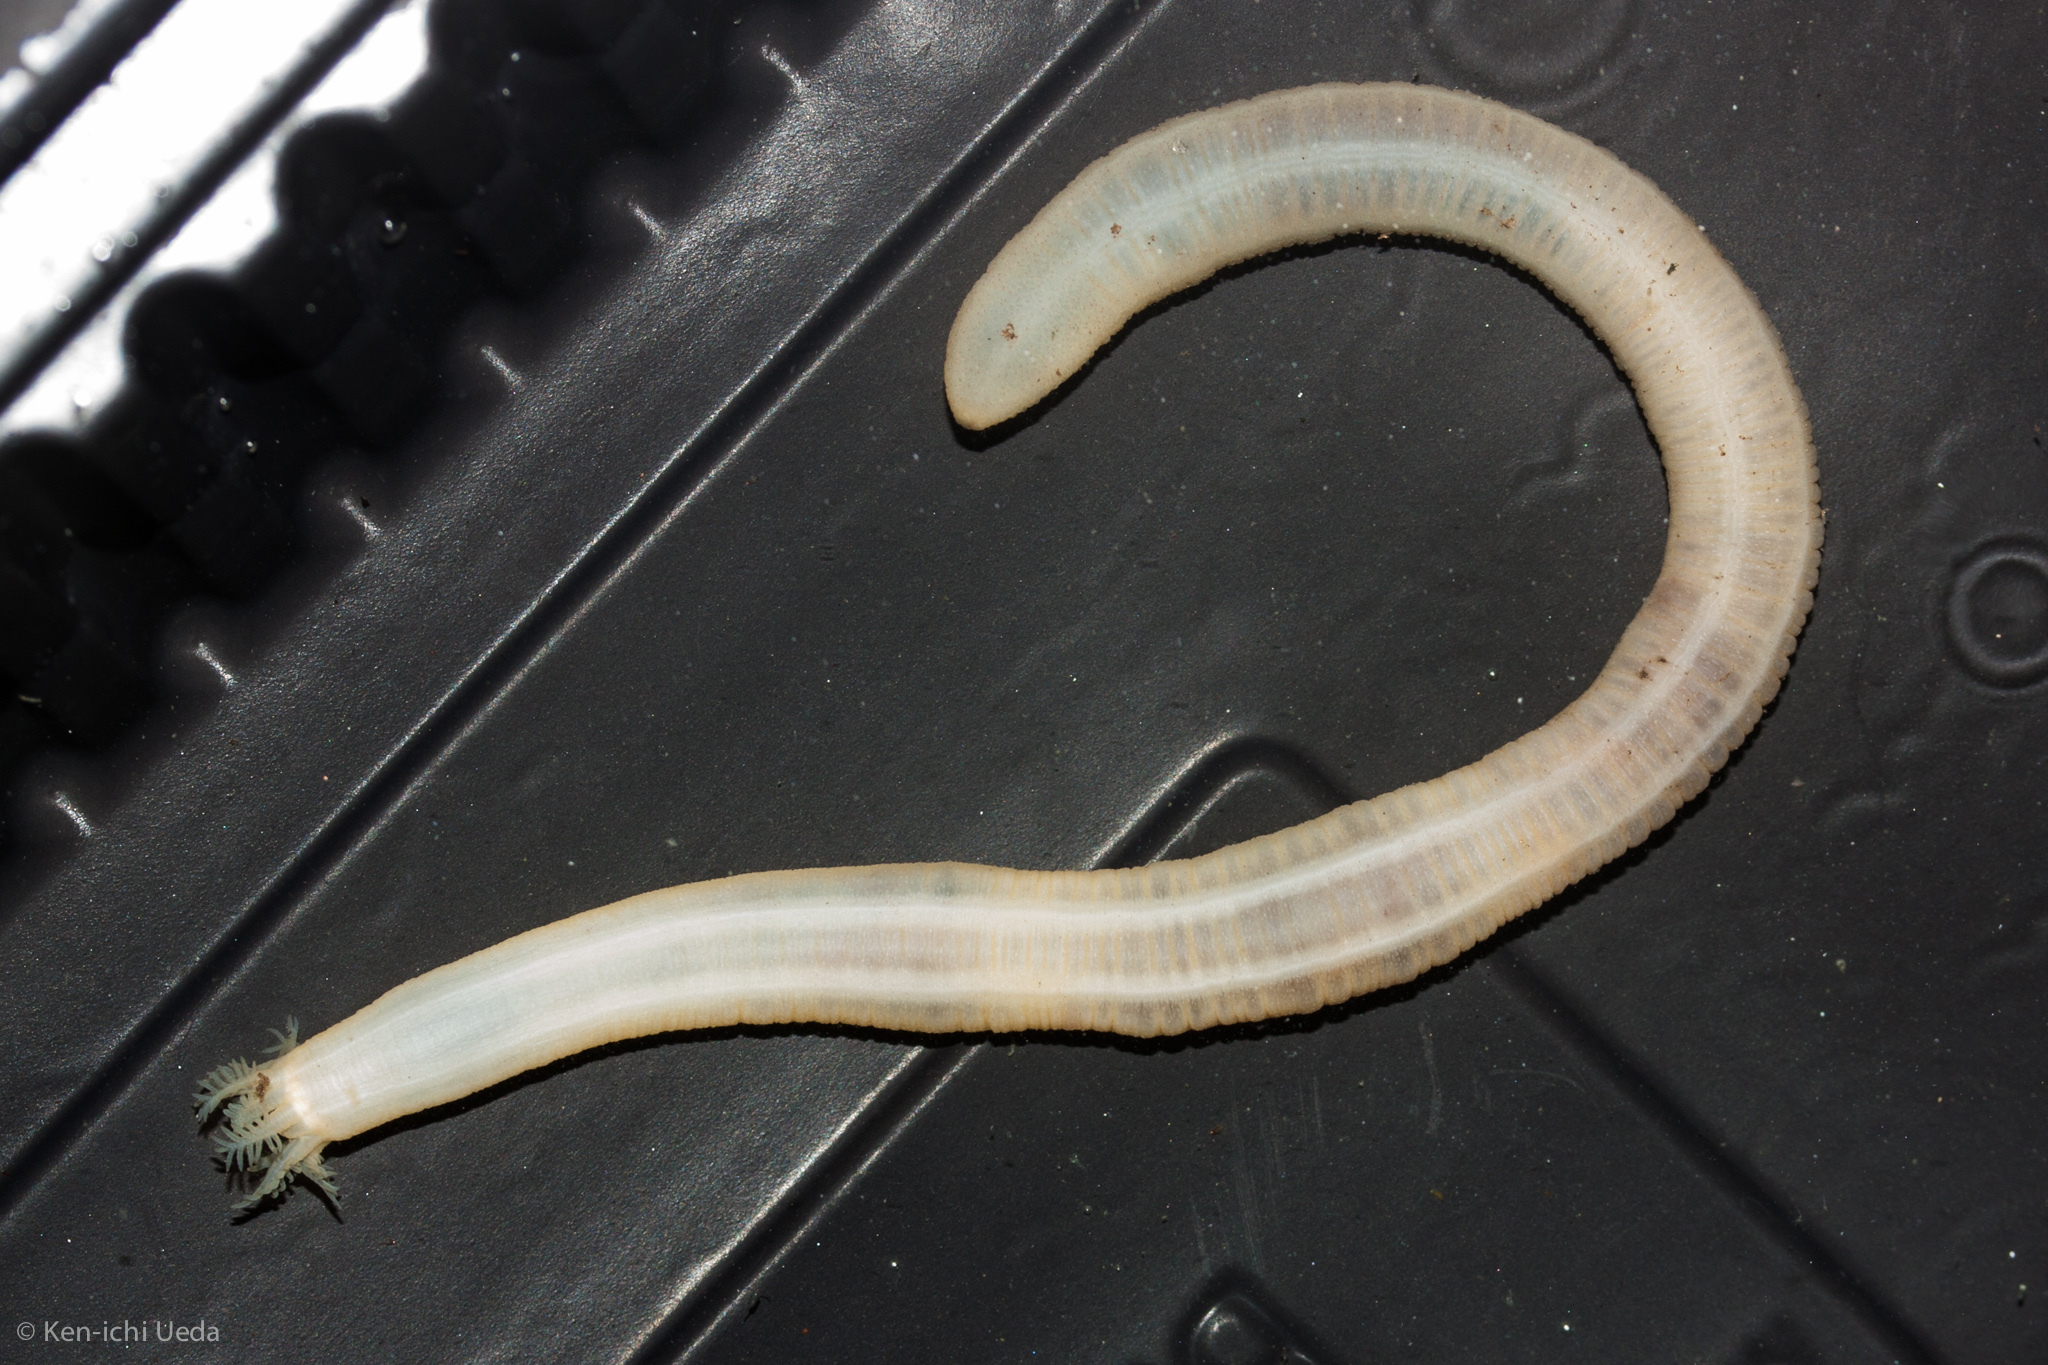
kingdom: Animalia
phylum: Echinodermata
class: Holothuroidea
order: Apodida
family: Synaptidae
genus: Leptosynapta
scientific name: Leptosynapta albicans
